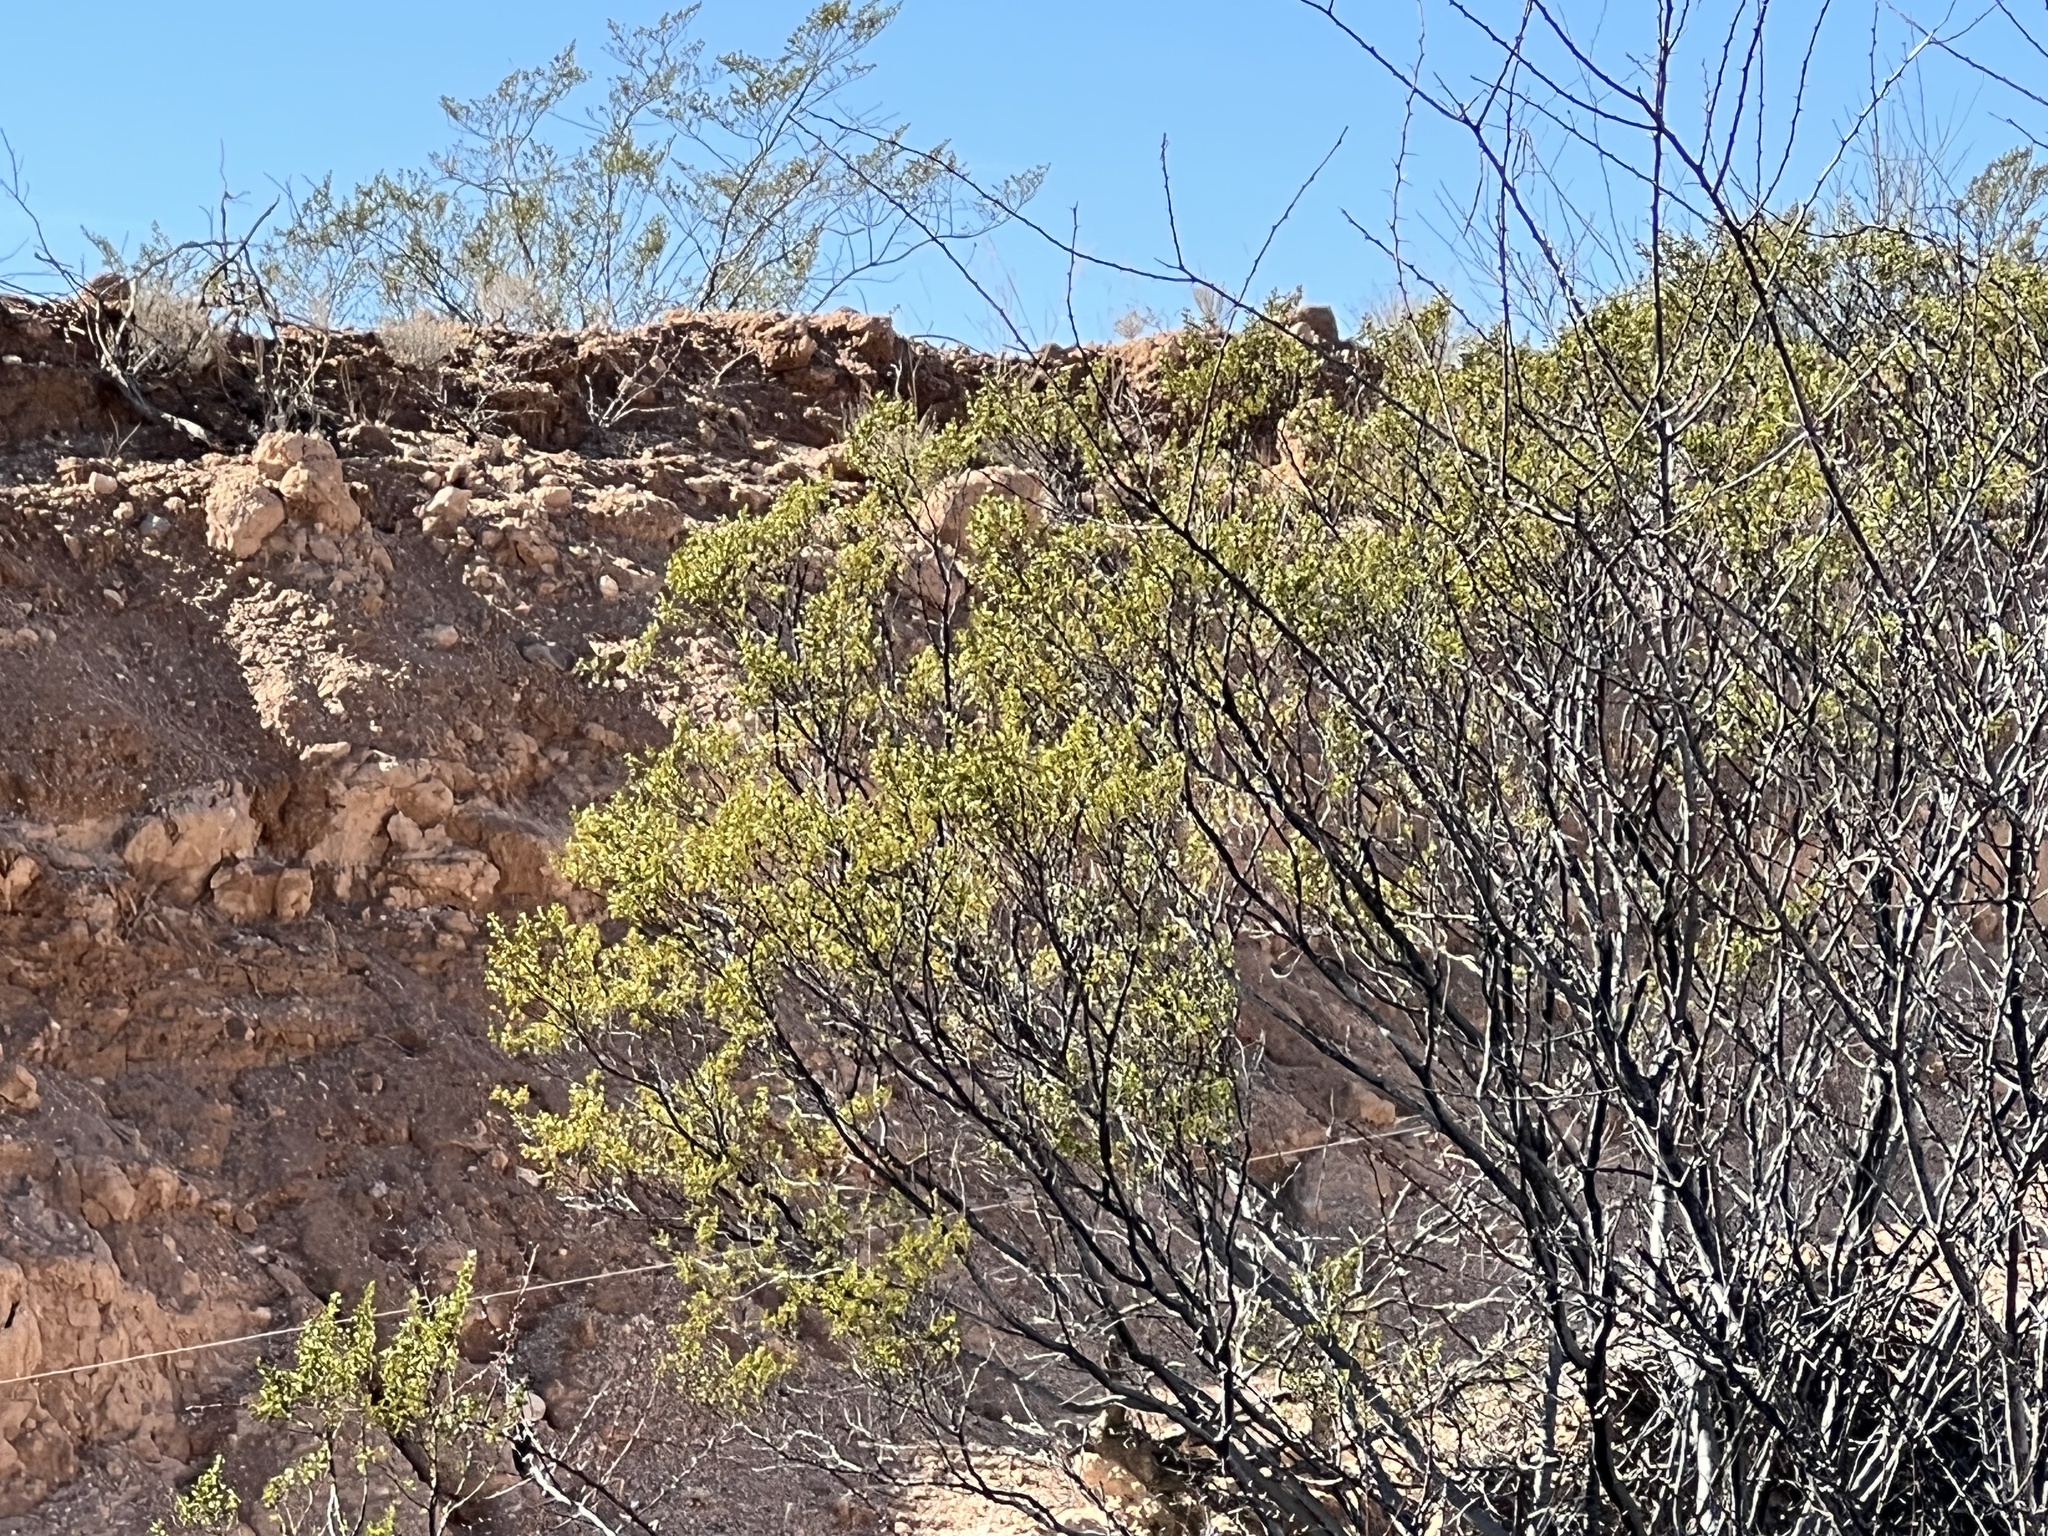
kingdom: Plantae
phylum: Tracheophyta
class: Magnoliopsida
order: Zygophyllales
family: Zygophyllaceae
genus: Larrea
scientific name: Larrea tridentata
